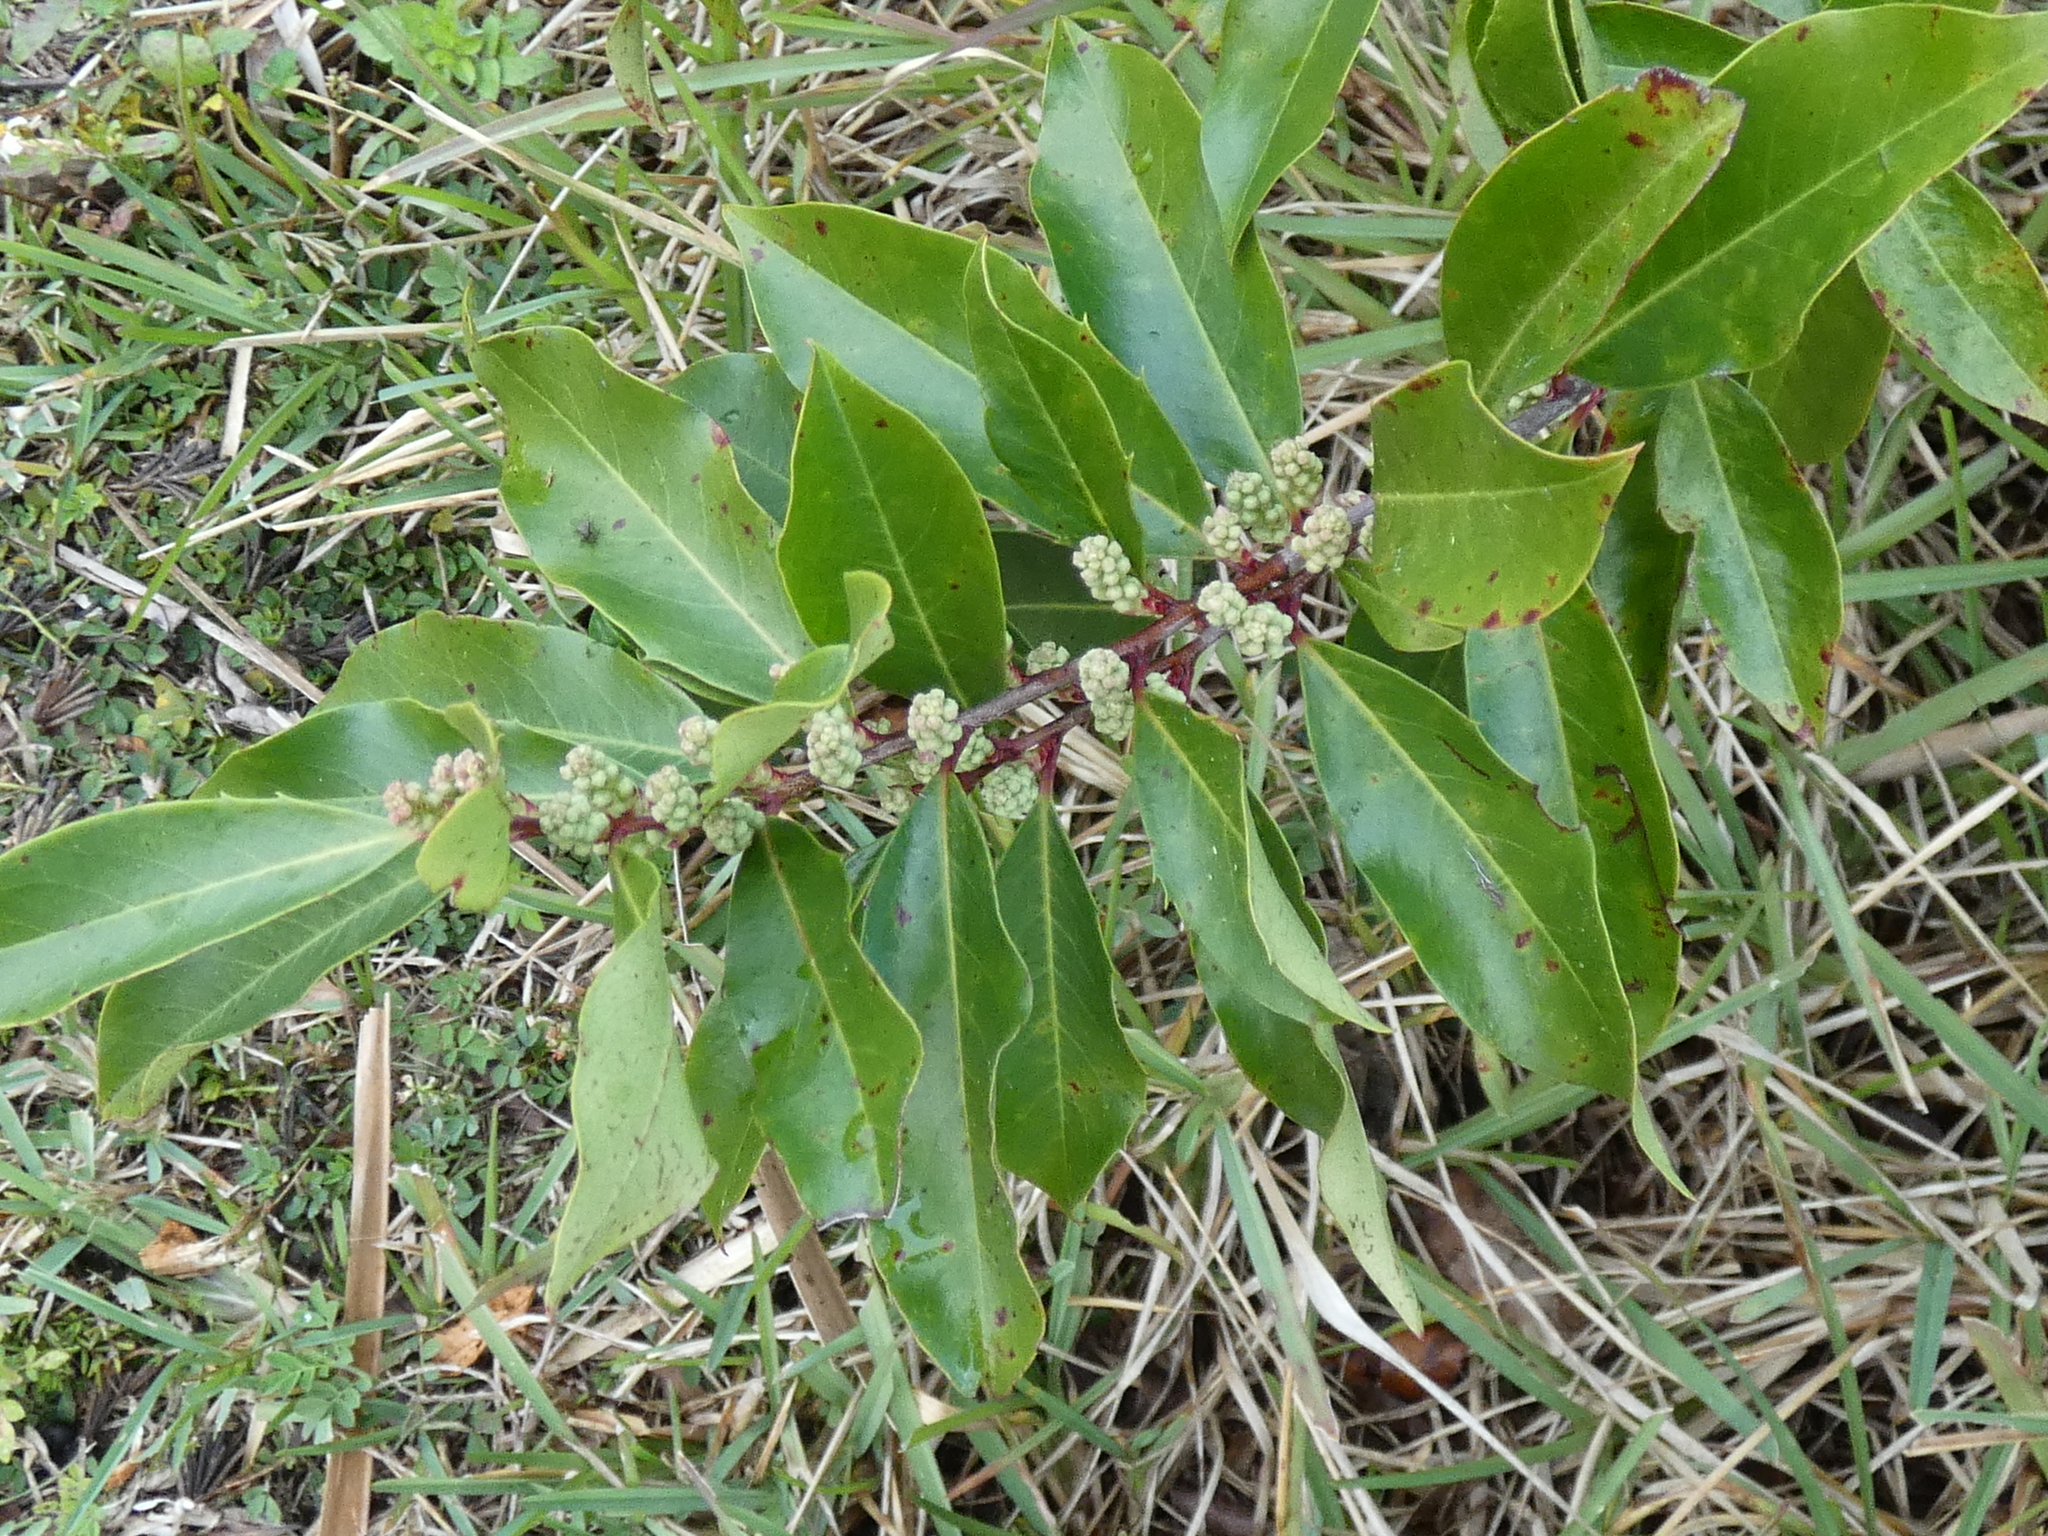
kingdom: Plantae
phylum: Tracheophyta
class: Magnoliopsida
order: Rosales
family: Rosaceae
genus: Prunus
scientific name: Prunus caroliniana
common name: Carolina laurel cherry
